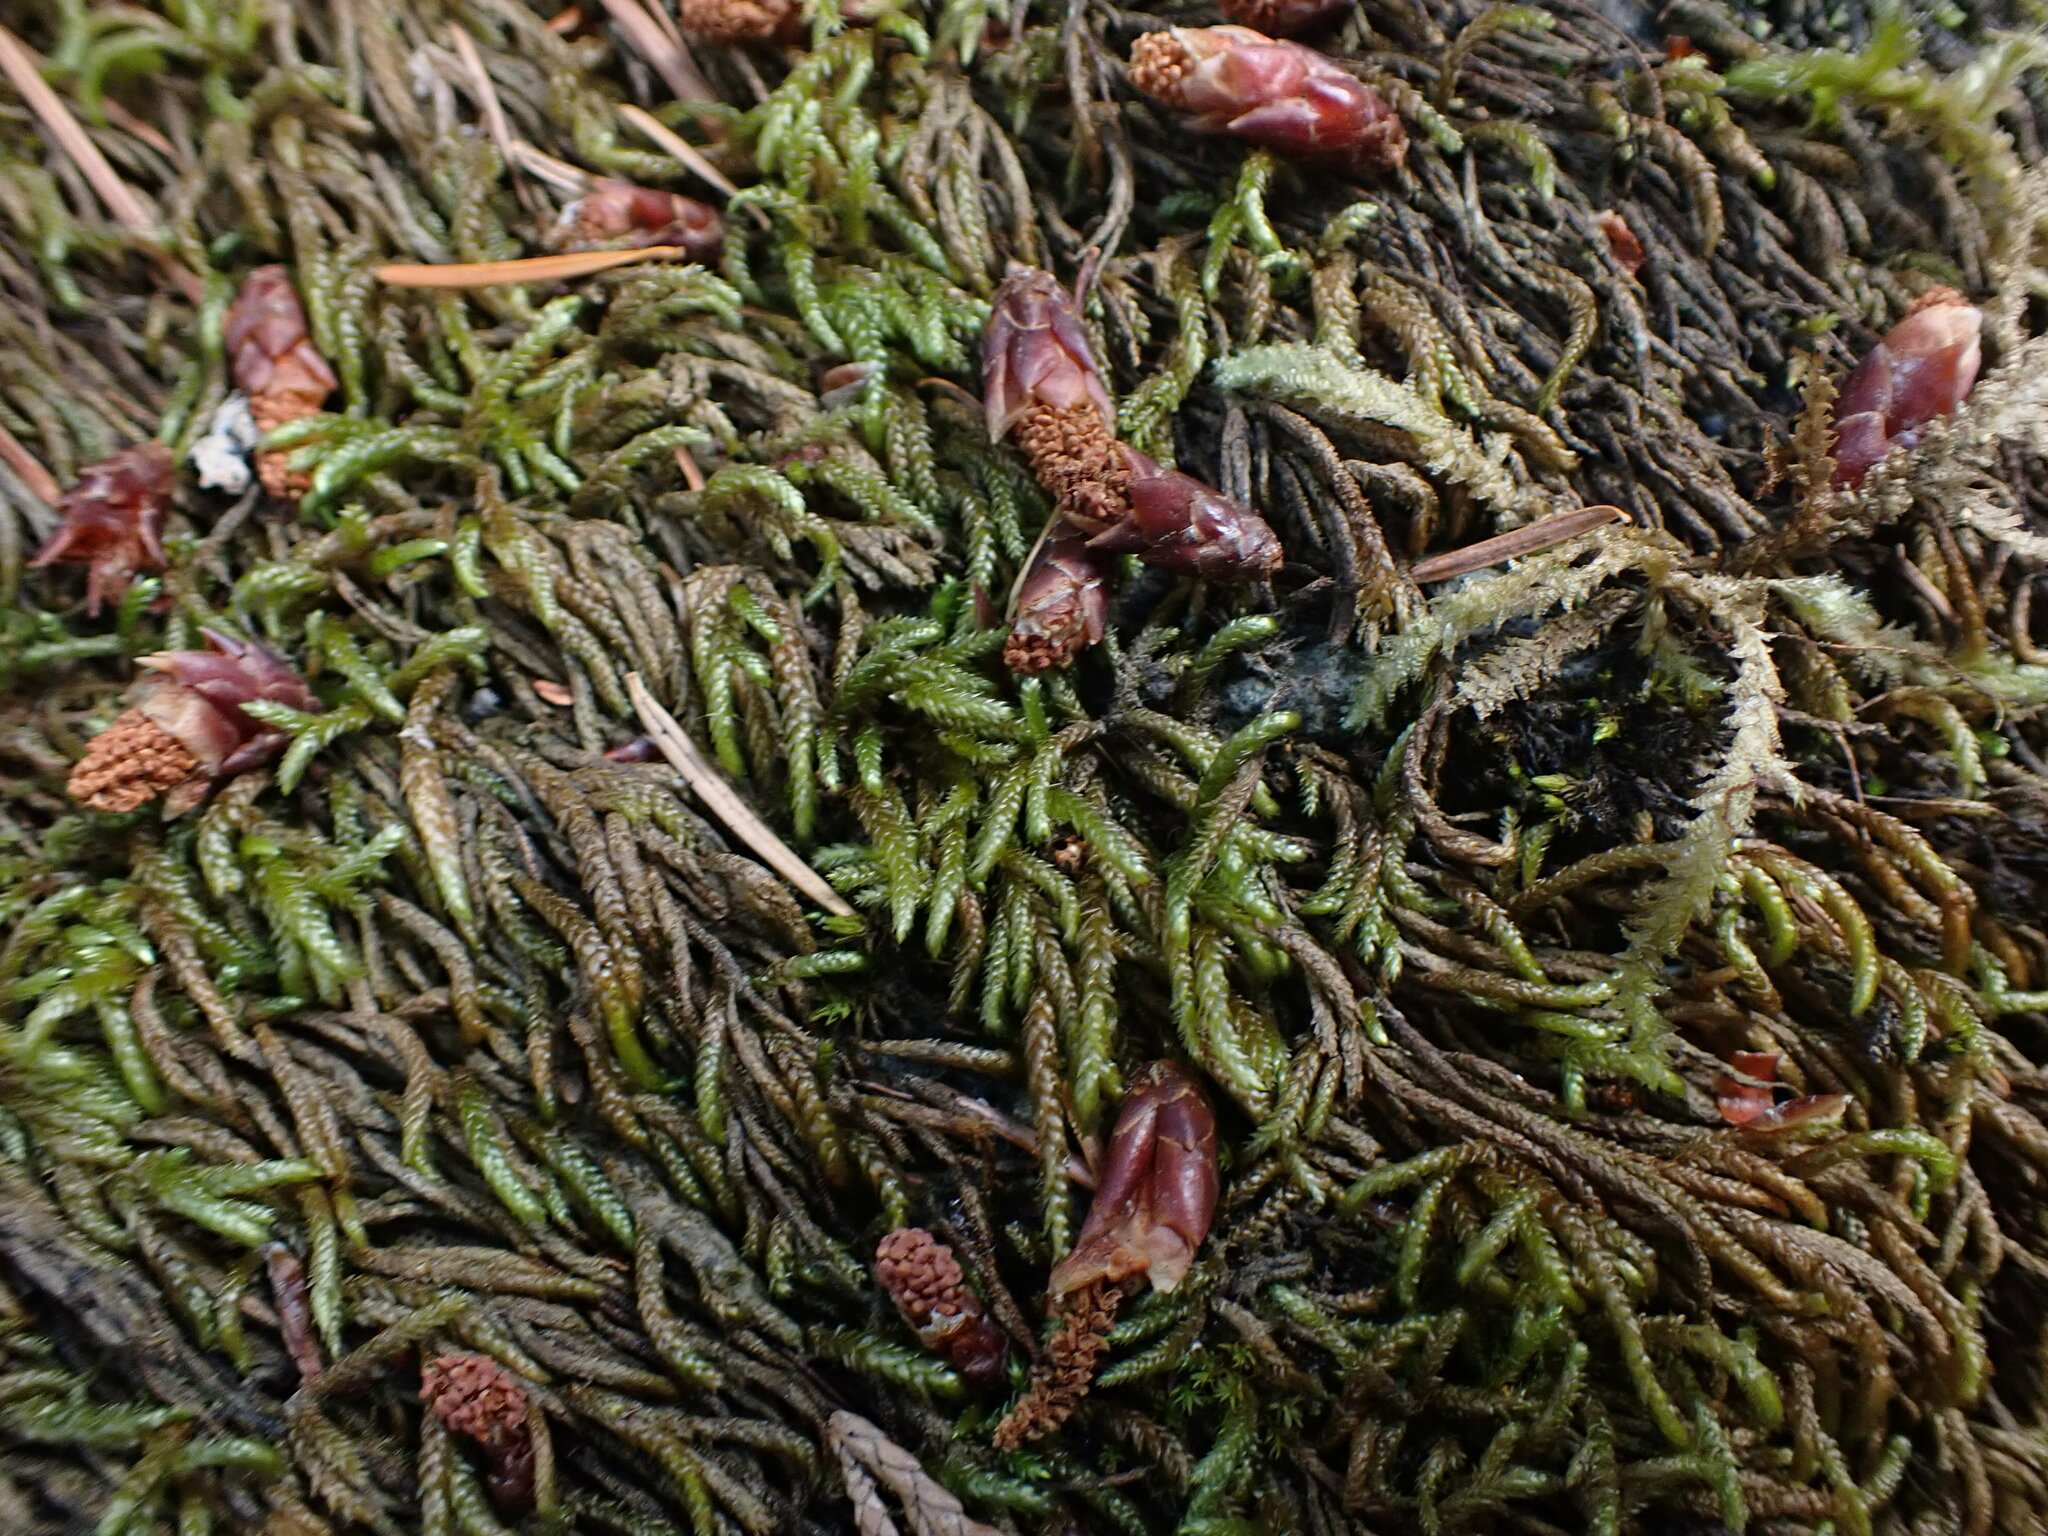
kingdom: Plantae
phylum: Bryophyta
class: Bryopsida
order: Hypnales
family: Brachytheciaceae
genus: Scleropodium
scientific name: Scleropodium obtusifolium
